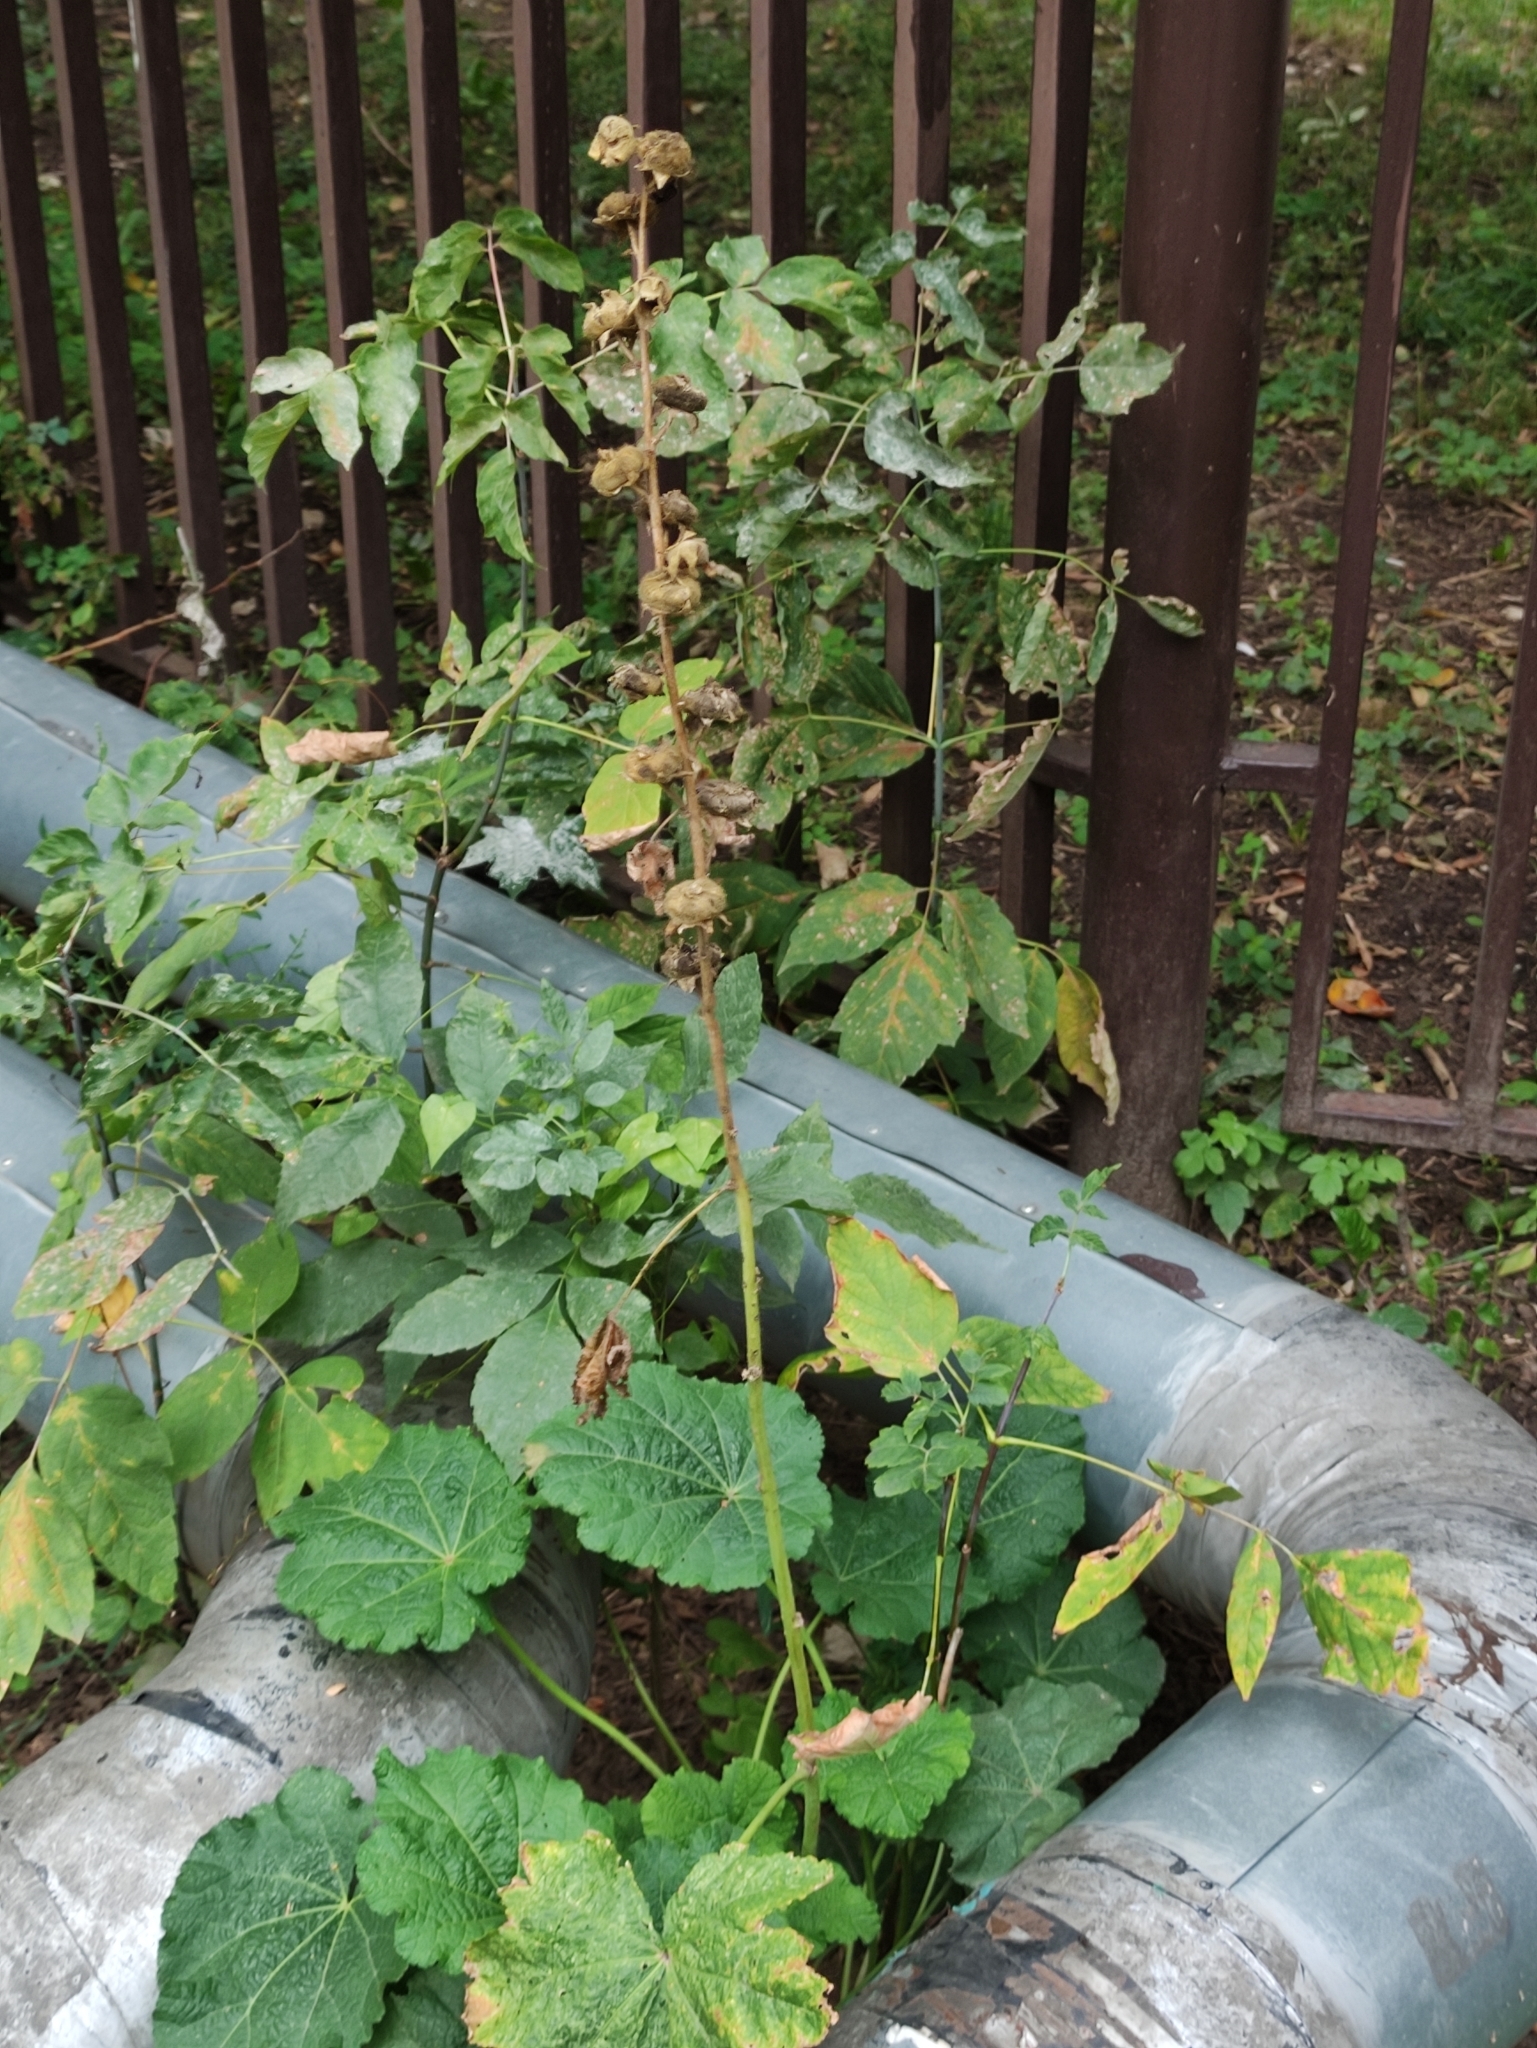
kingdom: Plantae
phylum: Tracheophyta
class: Magnoliopsida
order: Malvales
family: Malvaceae
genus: Alcea
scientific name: Alcea rosea
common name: Hollyhock
